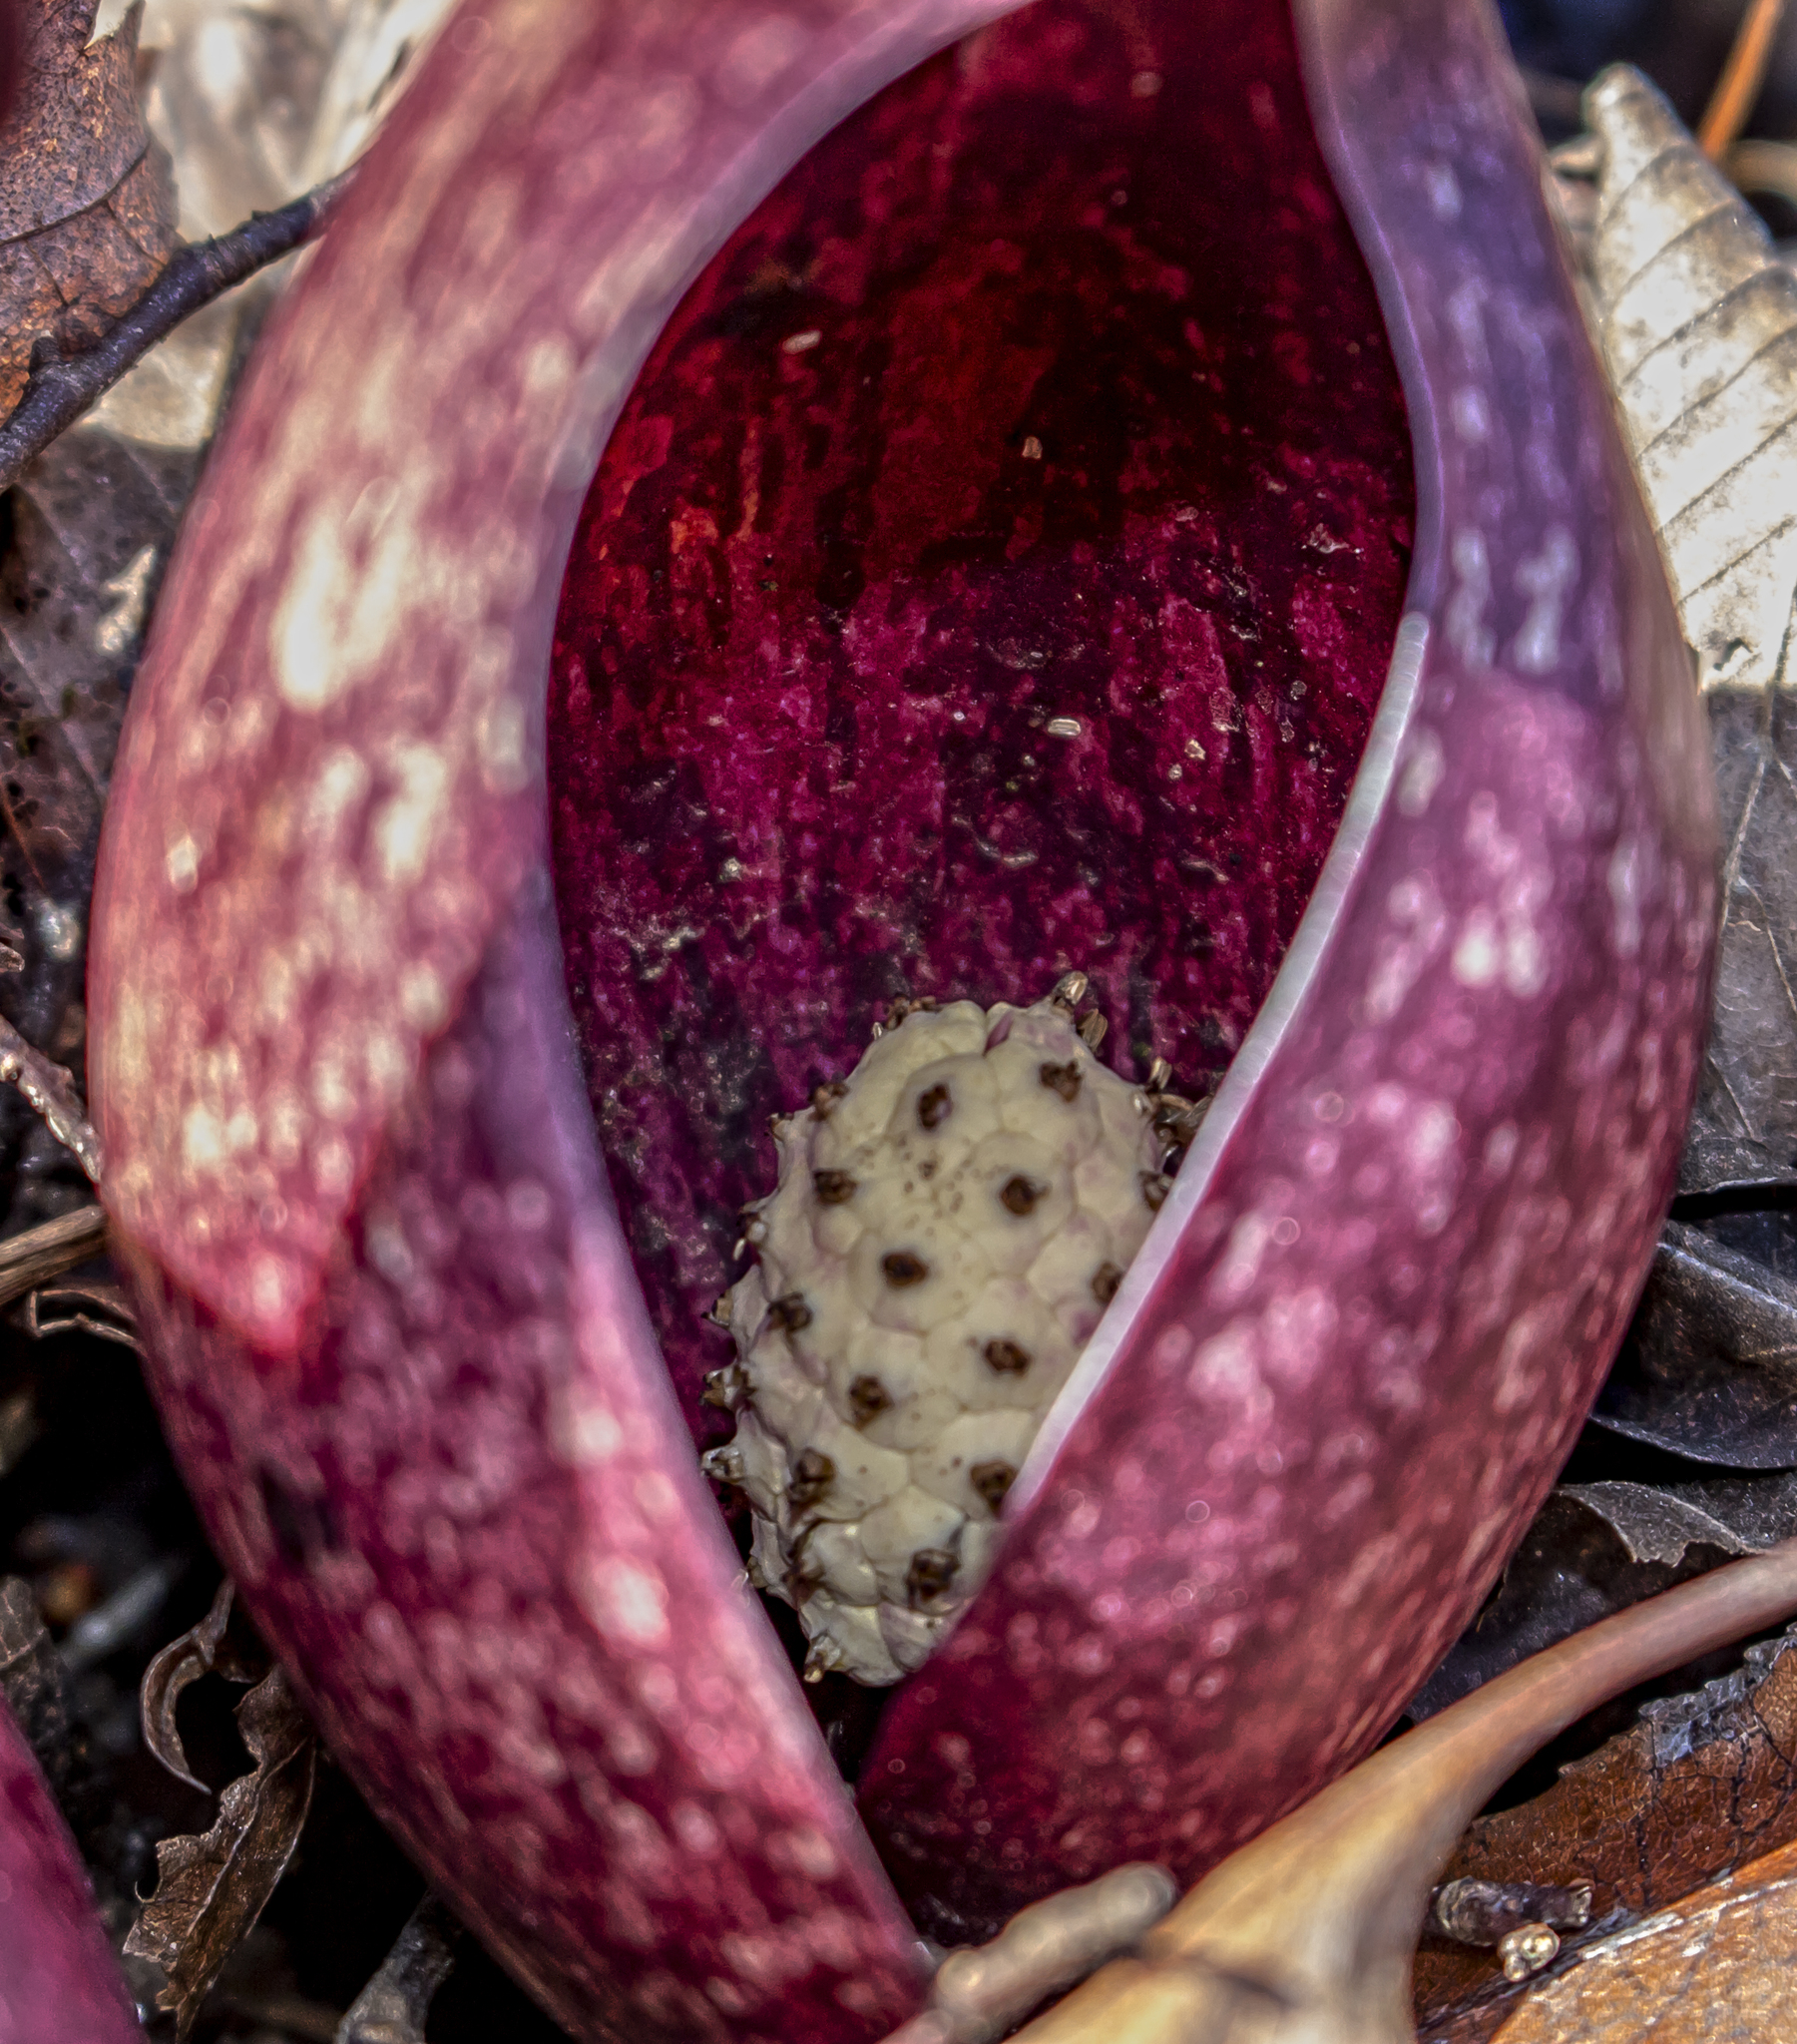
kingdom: Plantae
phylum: Tracheophyta
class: Liliopsida
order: Alismatales
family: Araceae
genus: Symplocarpus
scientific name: Symplocarpus foetidus
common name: Eastern skunk cabbage
